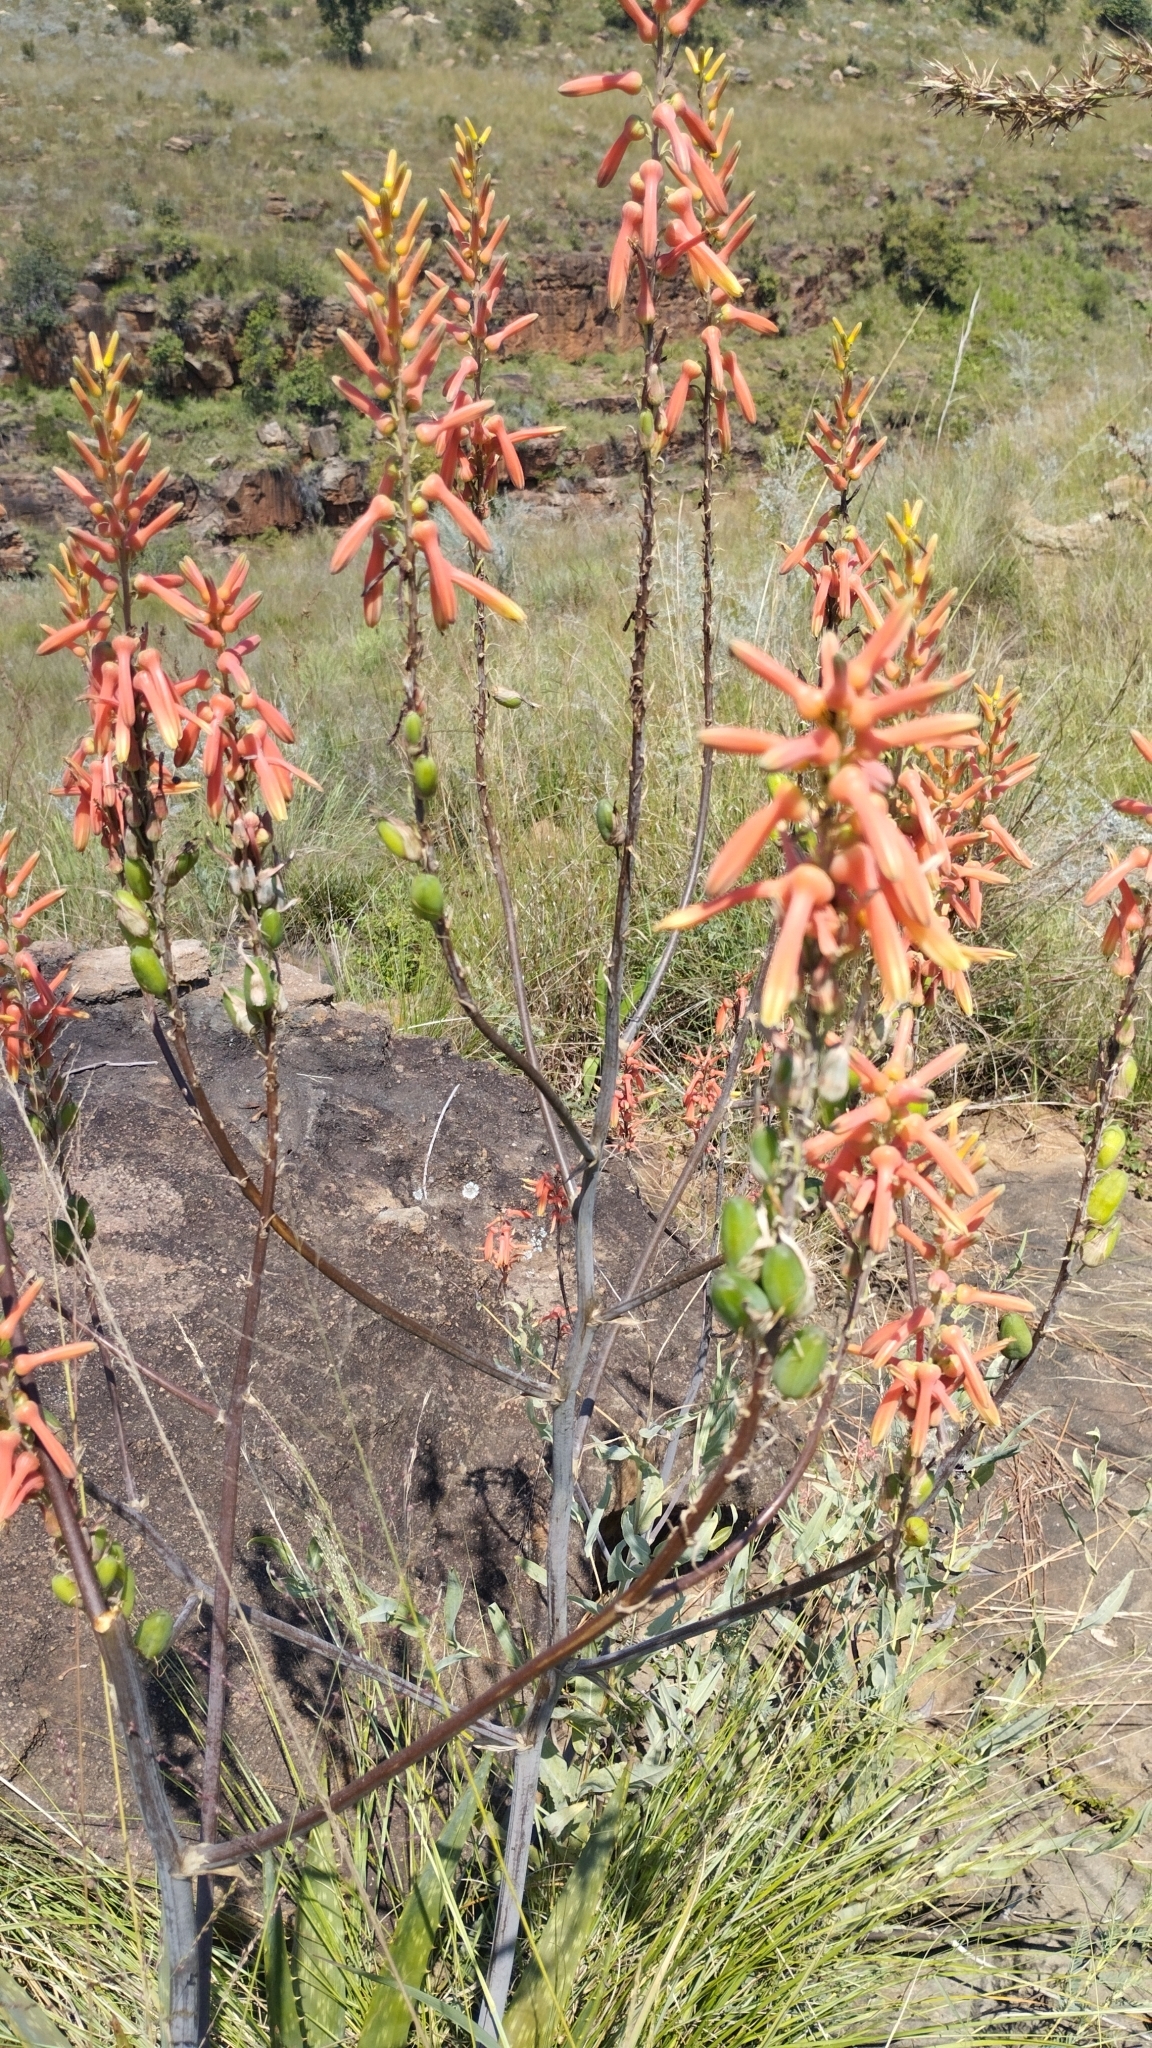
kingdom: Plantae
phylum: Tracheophyta
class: Liliopsida
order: Asparagales
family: Asphodelaceae
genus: Aloe
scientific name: Aloe fosteri
